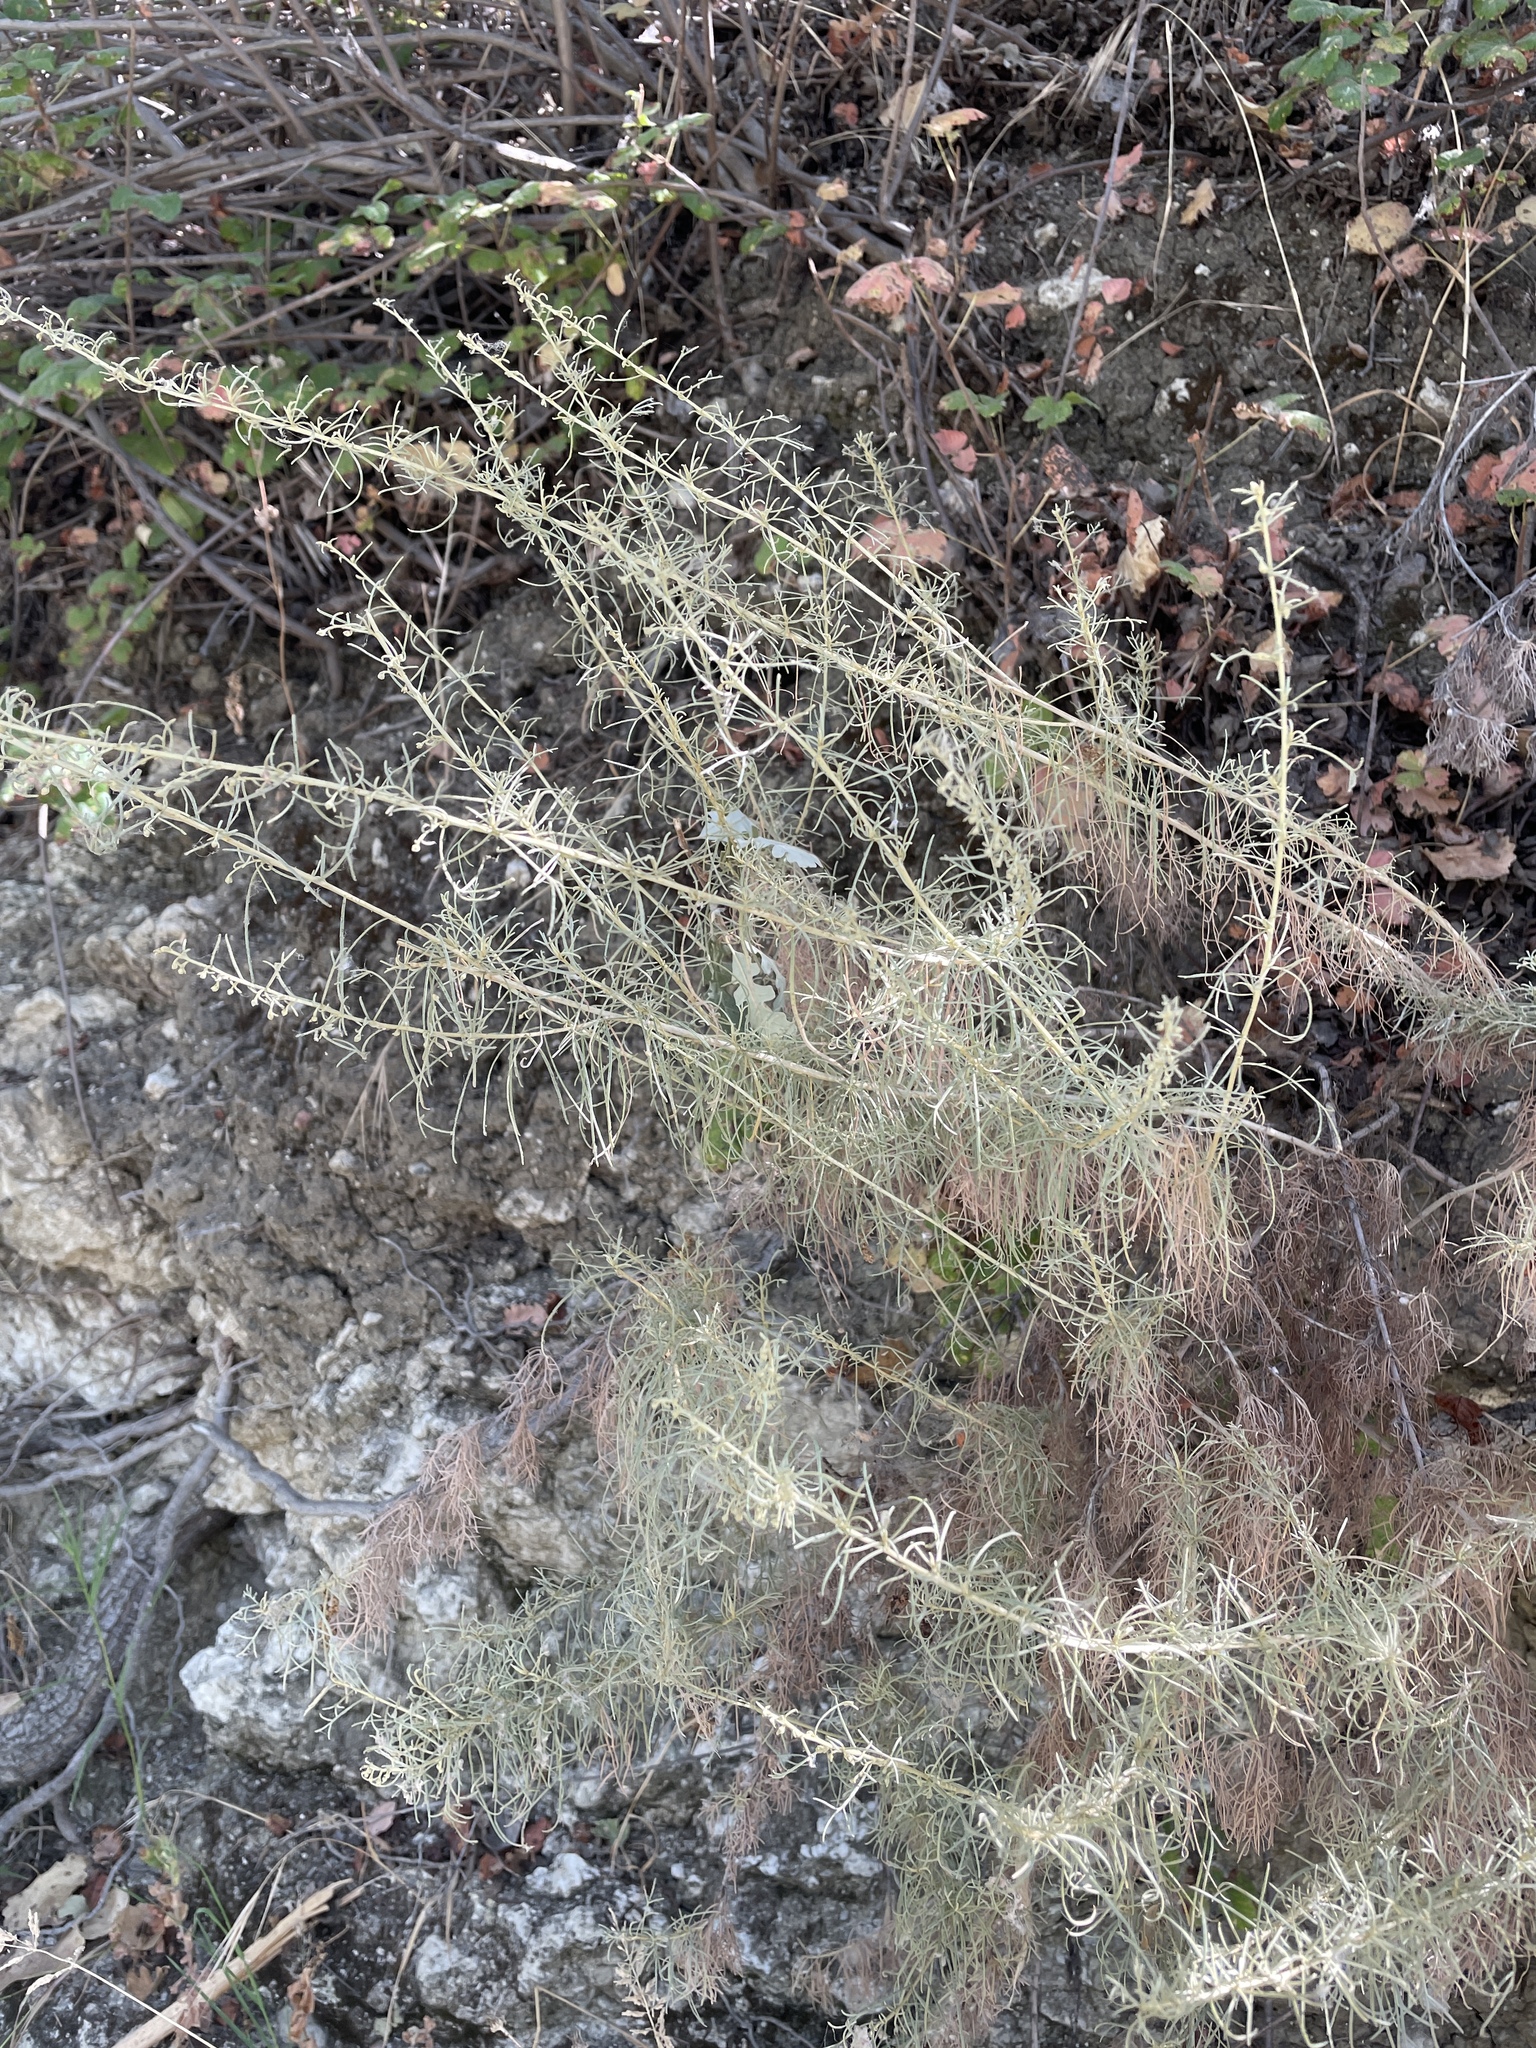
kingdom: Plantae
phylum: Tracheophyta
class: Magnoliopsida
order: Asterales
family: Asteraceae
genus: Artemisia
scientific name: Artemisia californica
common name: California sagebrush
